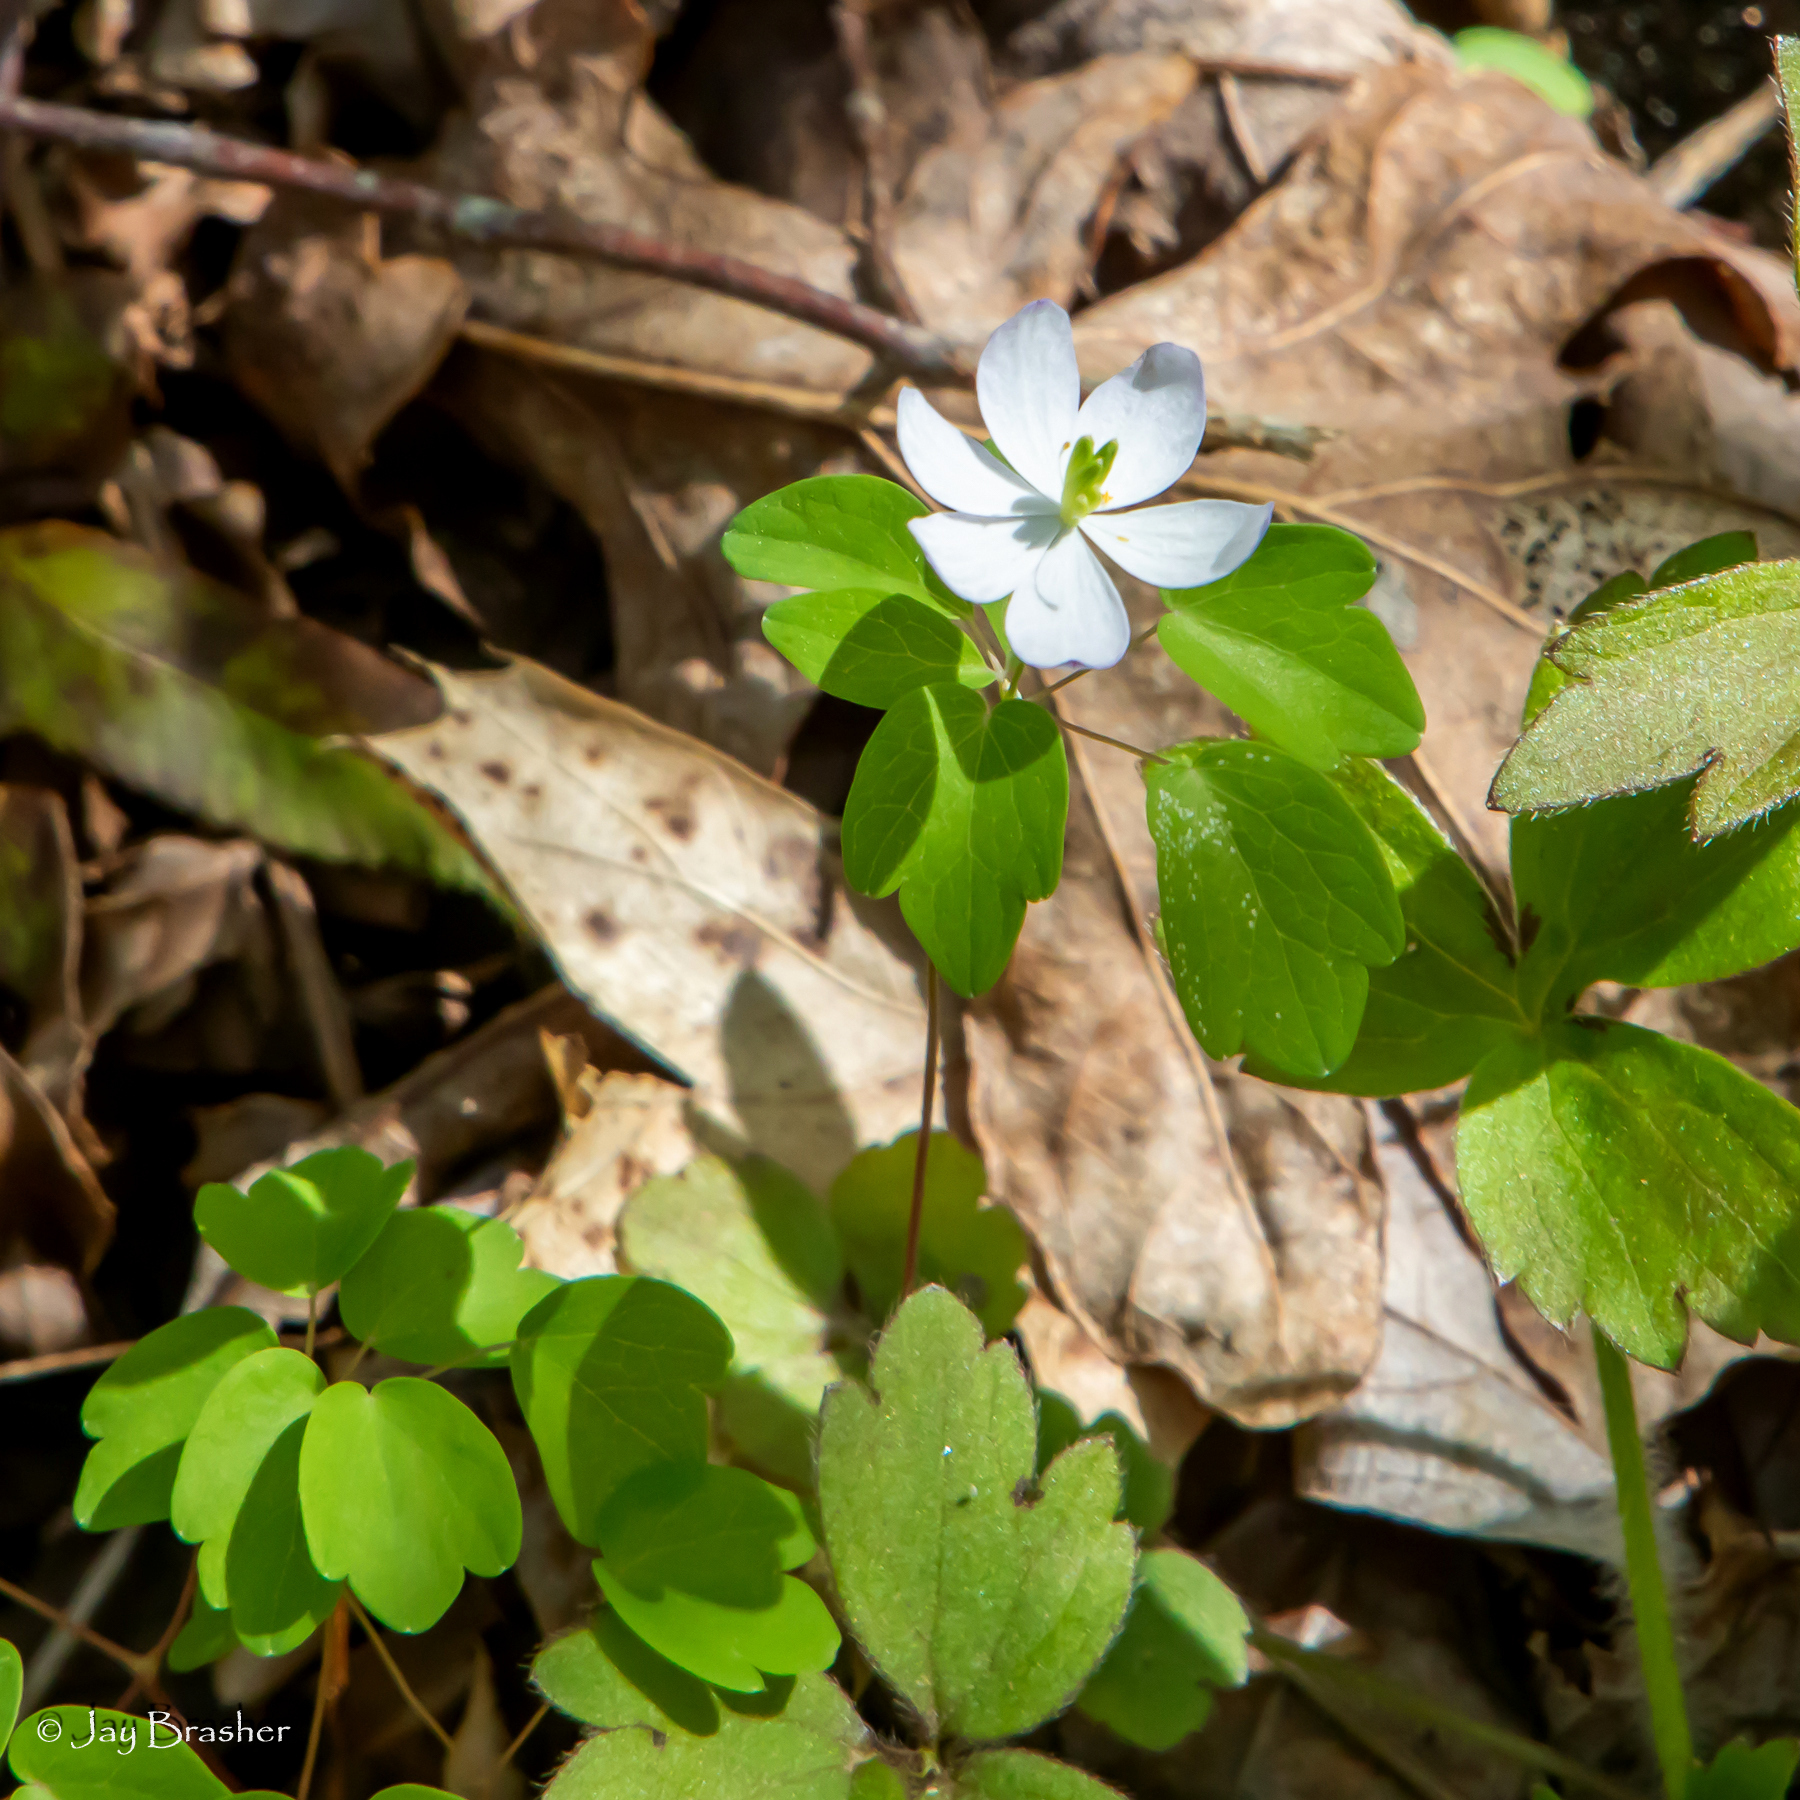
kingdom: Plantae
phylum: Tracheophyta
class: Magnoliopsida
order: Ranunculales
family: Ranunculaceae
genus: Thalictrum
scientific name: Thalictrum thalictroides
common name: Rue-anemone
